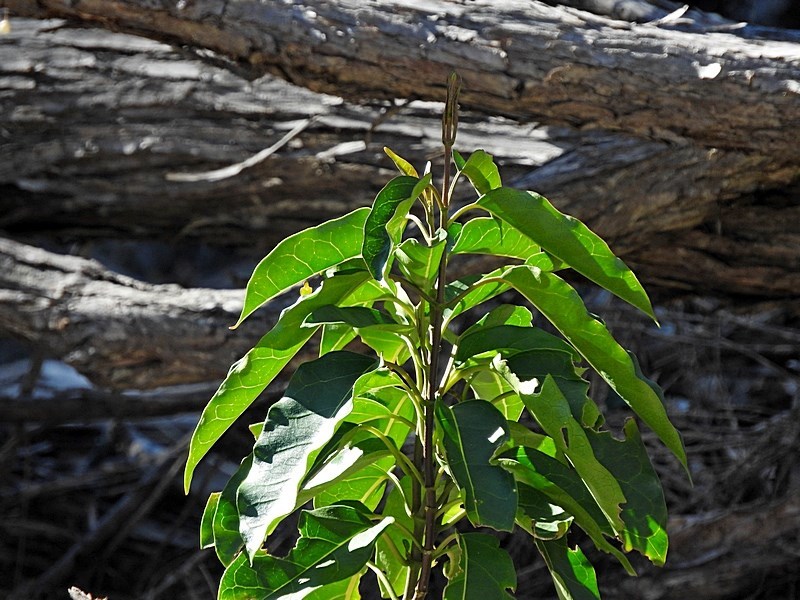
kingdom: Plantae
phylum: Tracheophyta
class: Magnoliopsida
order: Gentianales
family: Apocynaceae
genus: Leichhardtia
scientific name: Leichhardtia rostrata
